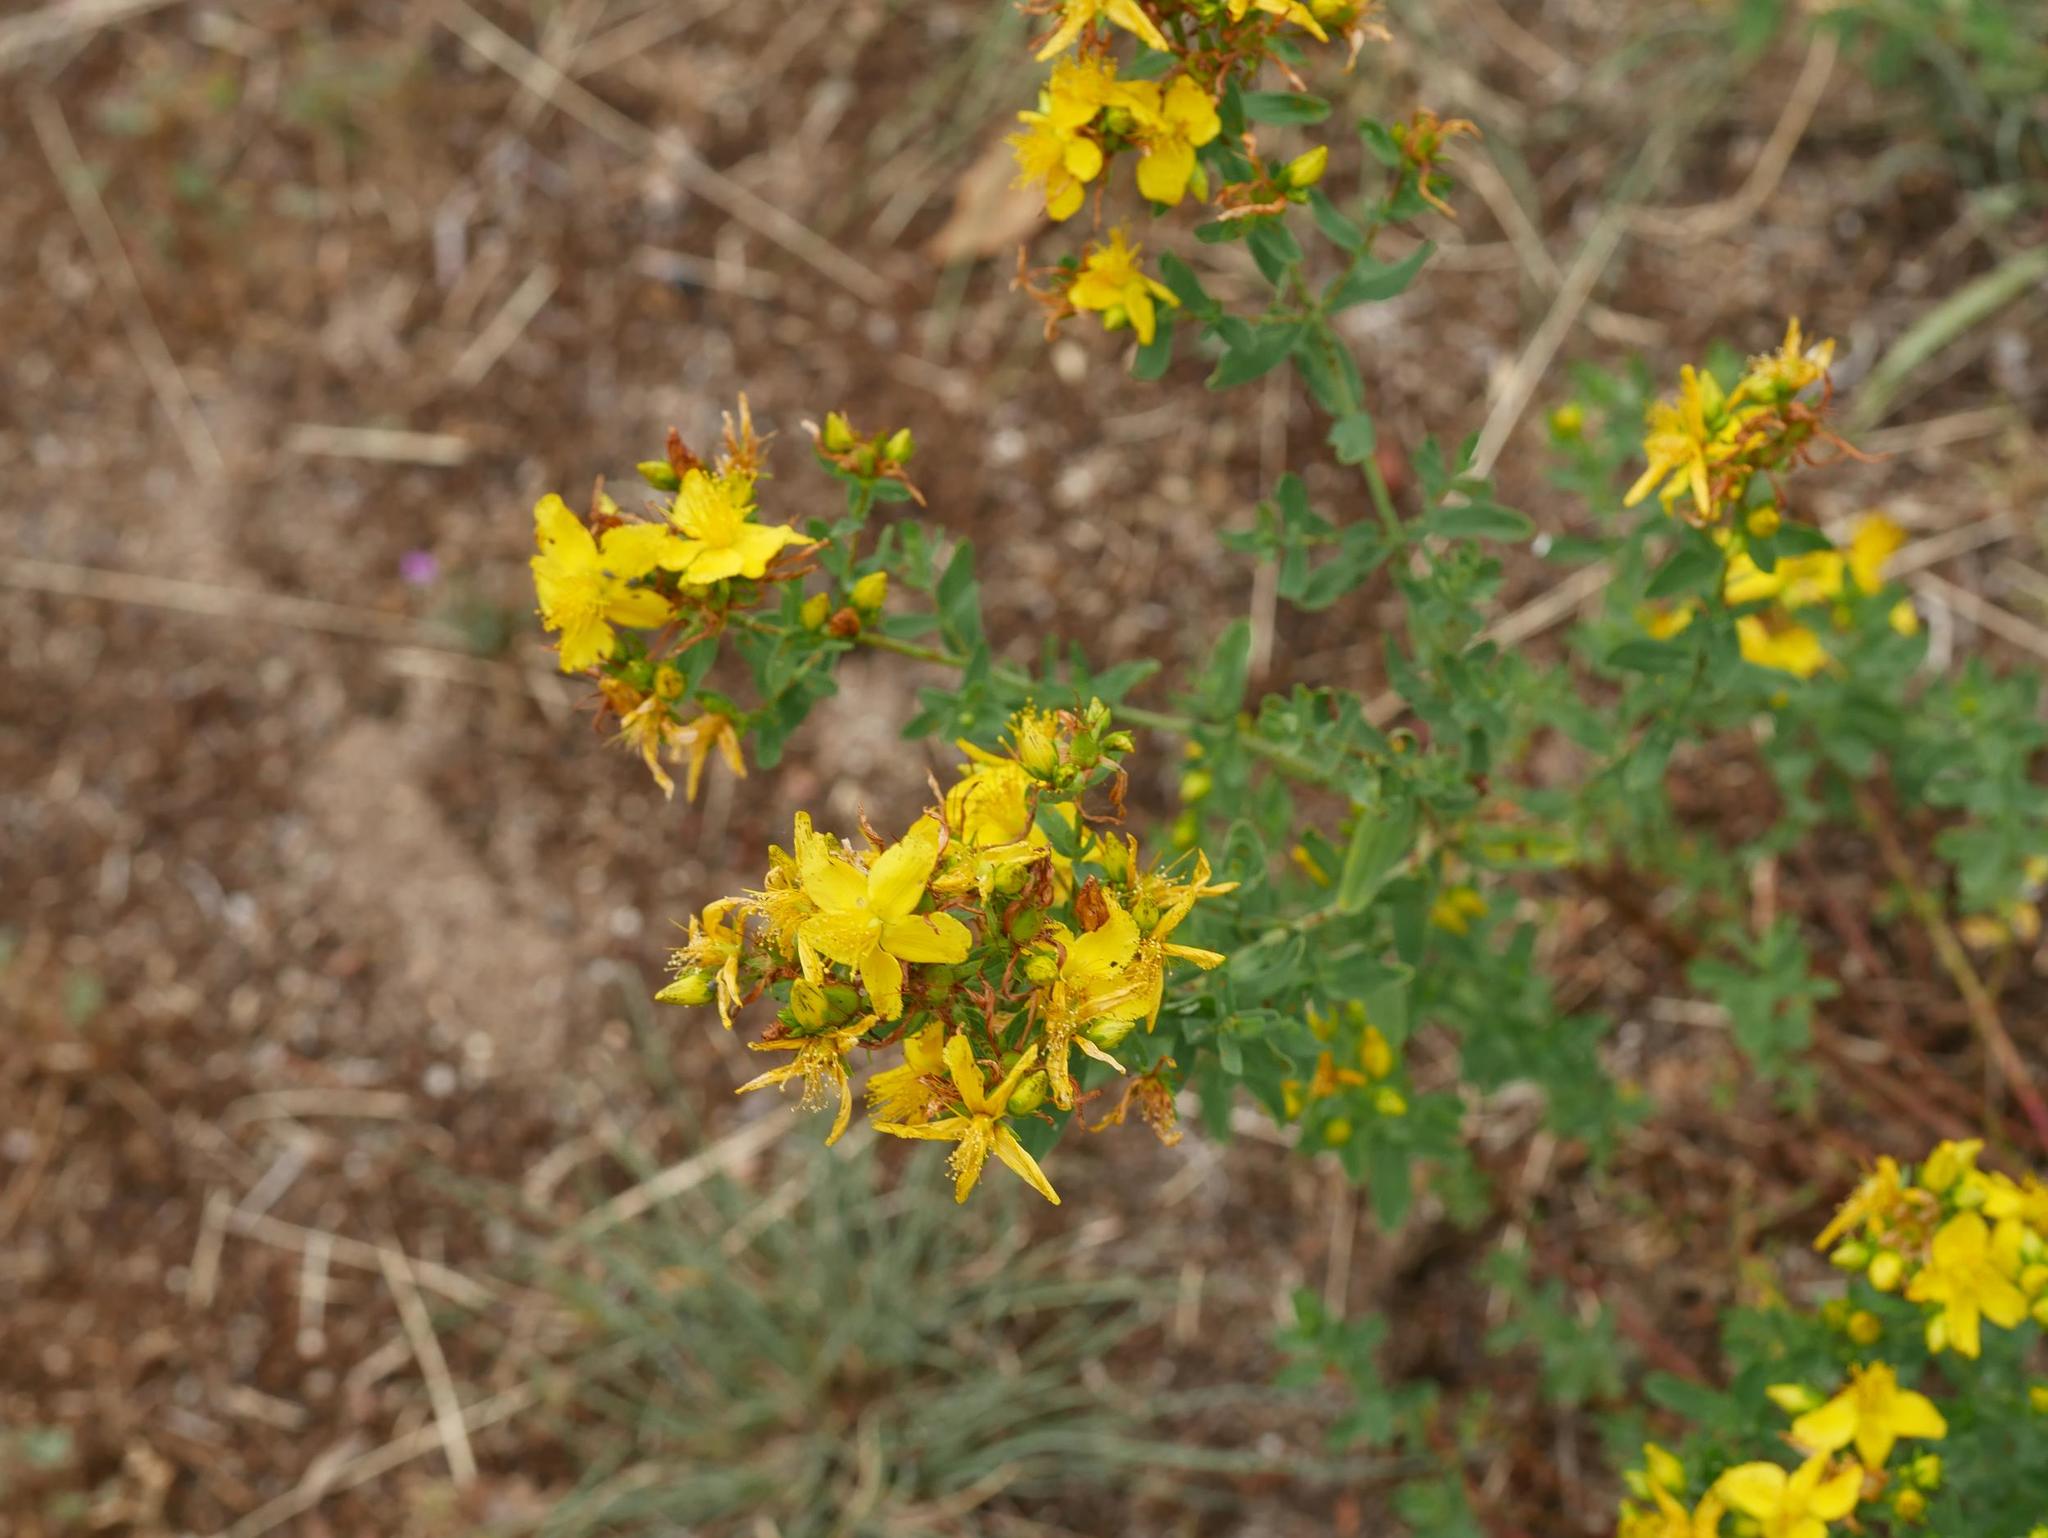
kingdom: Plantae
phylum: Tracheophyta
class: Magnoliopsida
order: Malpighiales
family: Hypericaceae
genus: Hypericum
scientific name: Hypericum perforatum
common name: Common st. johnswort
